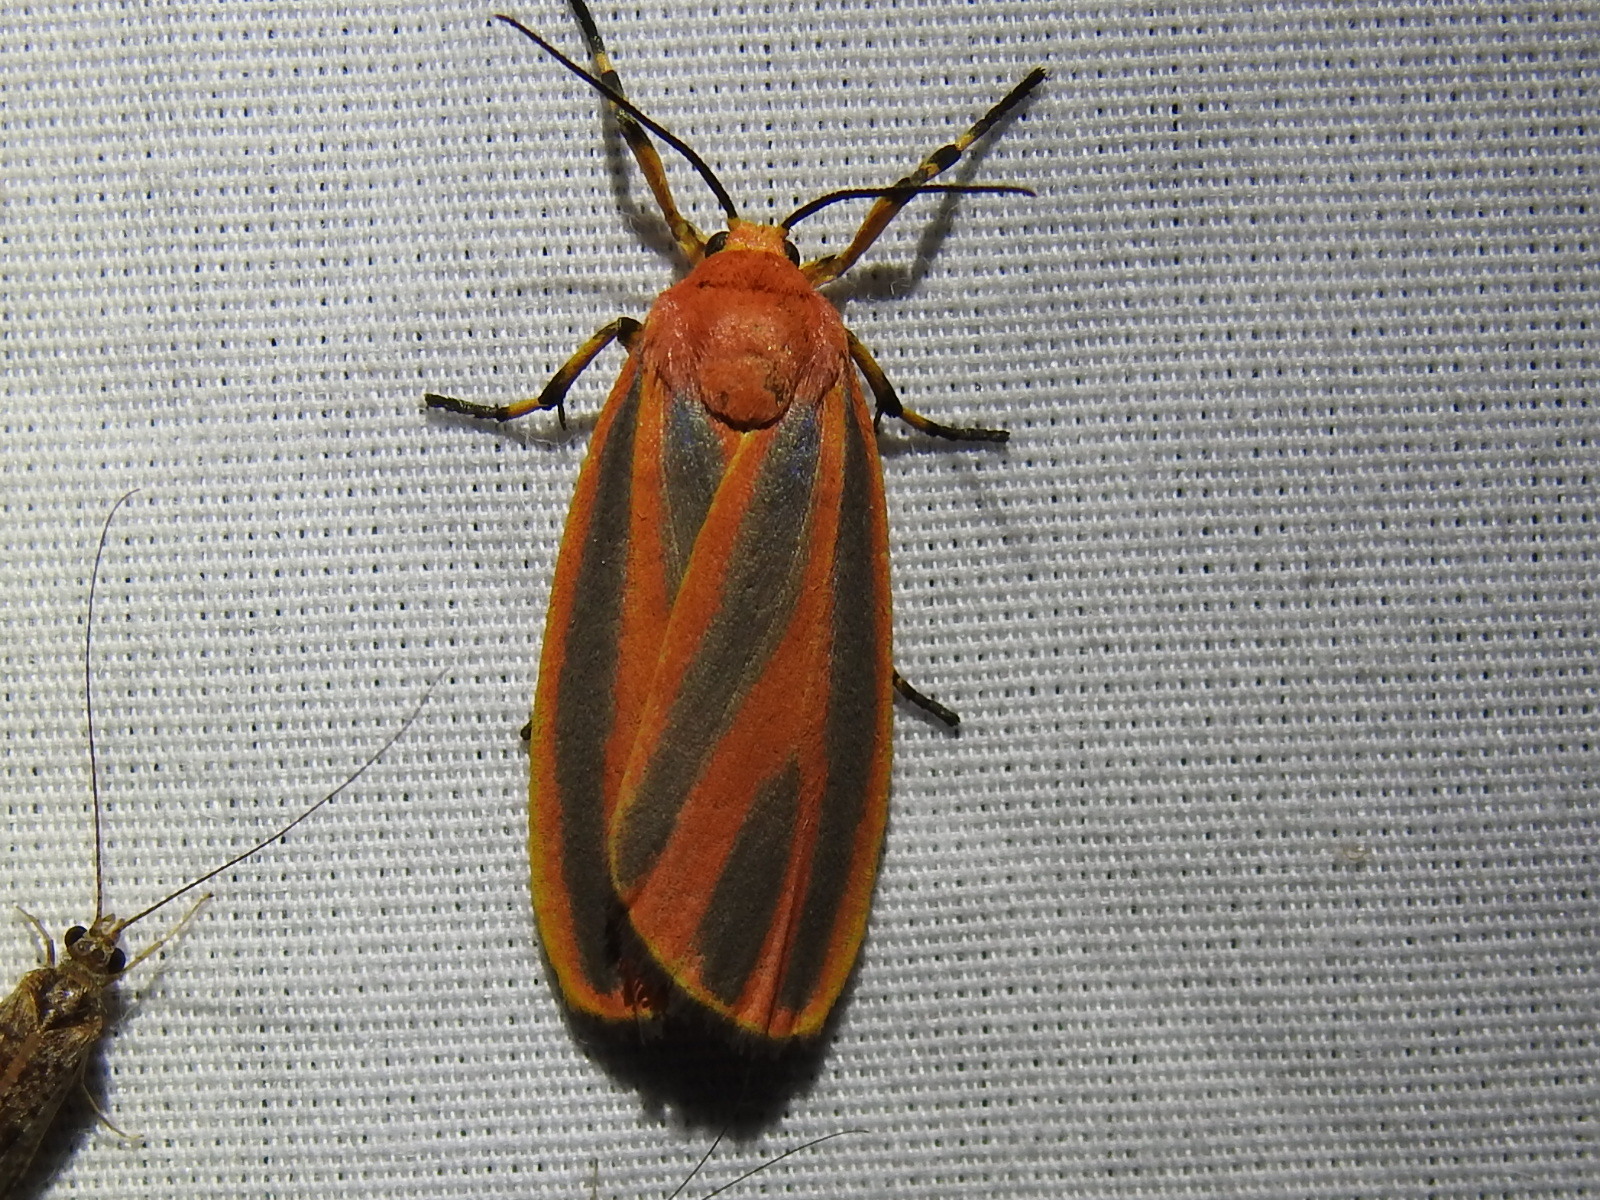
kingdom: Animalia
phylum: Arthropoda
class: Insecta
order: Lepidoptera
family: Erebidae
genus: Hypoprepia
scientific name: Hypoprepia
